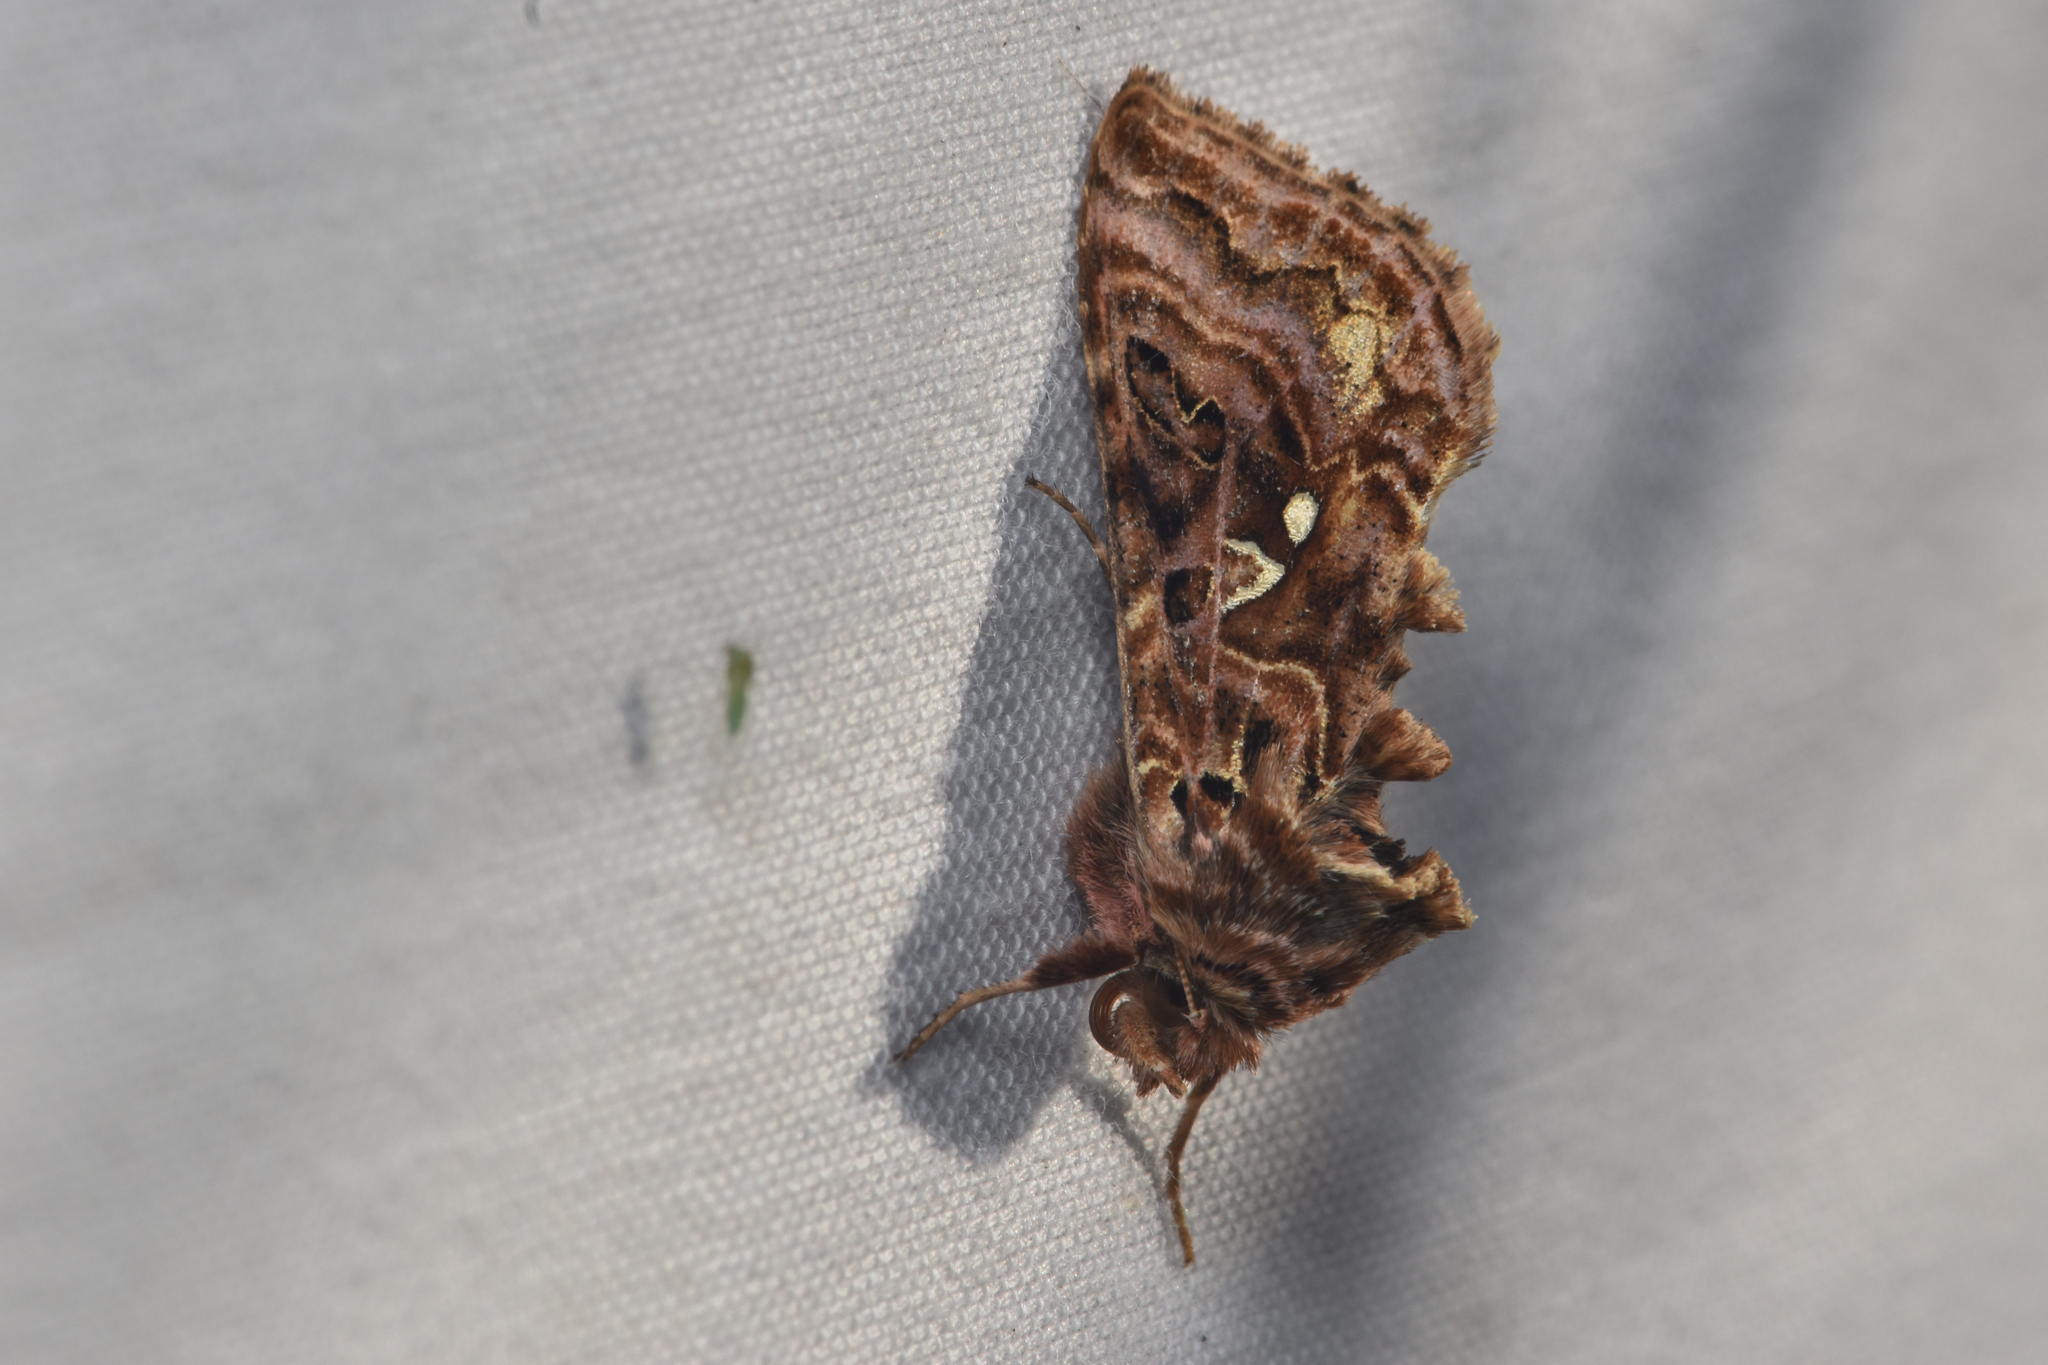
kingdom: Animalia
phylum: Arthropoda
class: Insecta
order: Lepidoptera
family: Noctuidae
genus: Autographa
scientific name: Autographa mappa
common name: Wavy chestnut y moth
